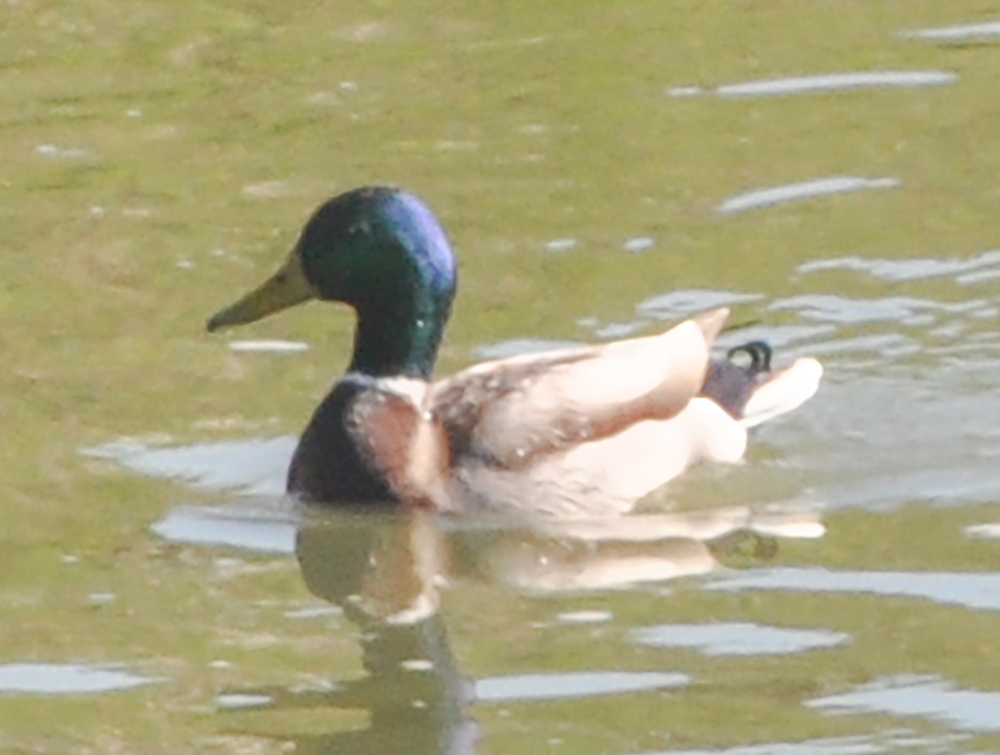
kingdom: Animalia
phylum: Chordata
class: Aves
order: Anseriformes
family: Anatidae
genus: Anas
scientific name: Anas platyrhynchos
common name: Mallard
